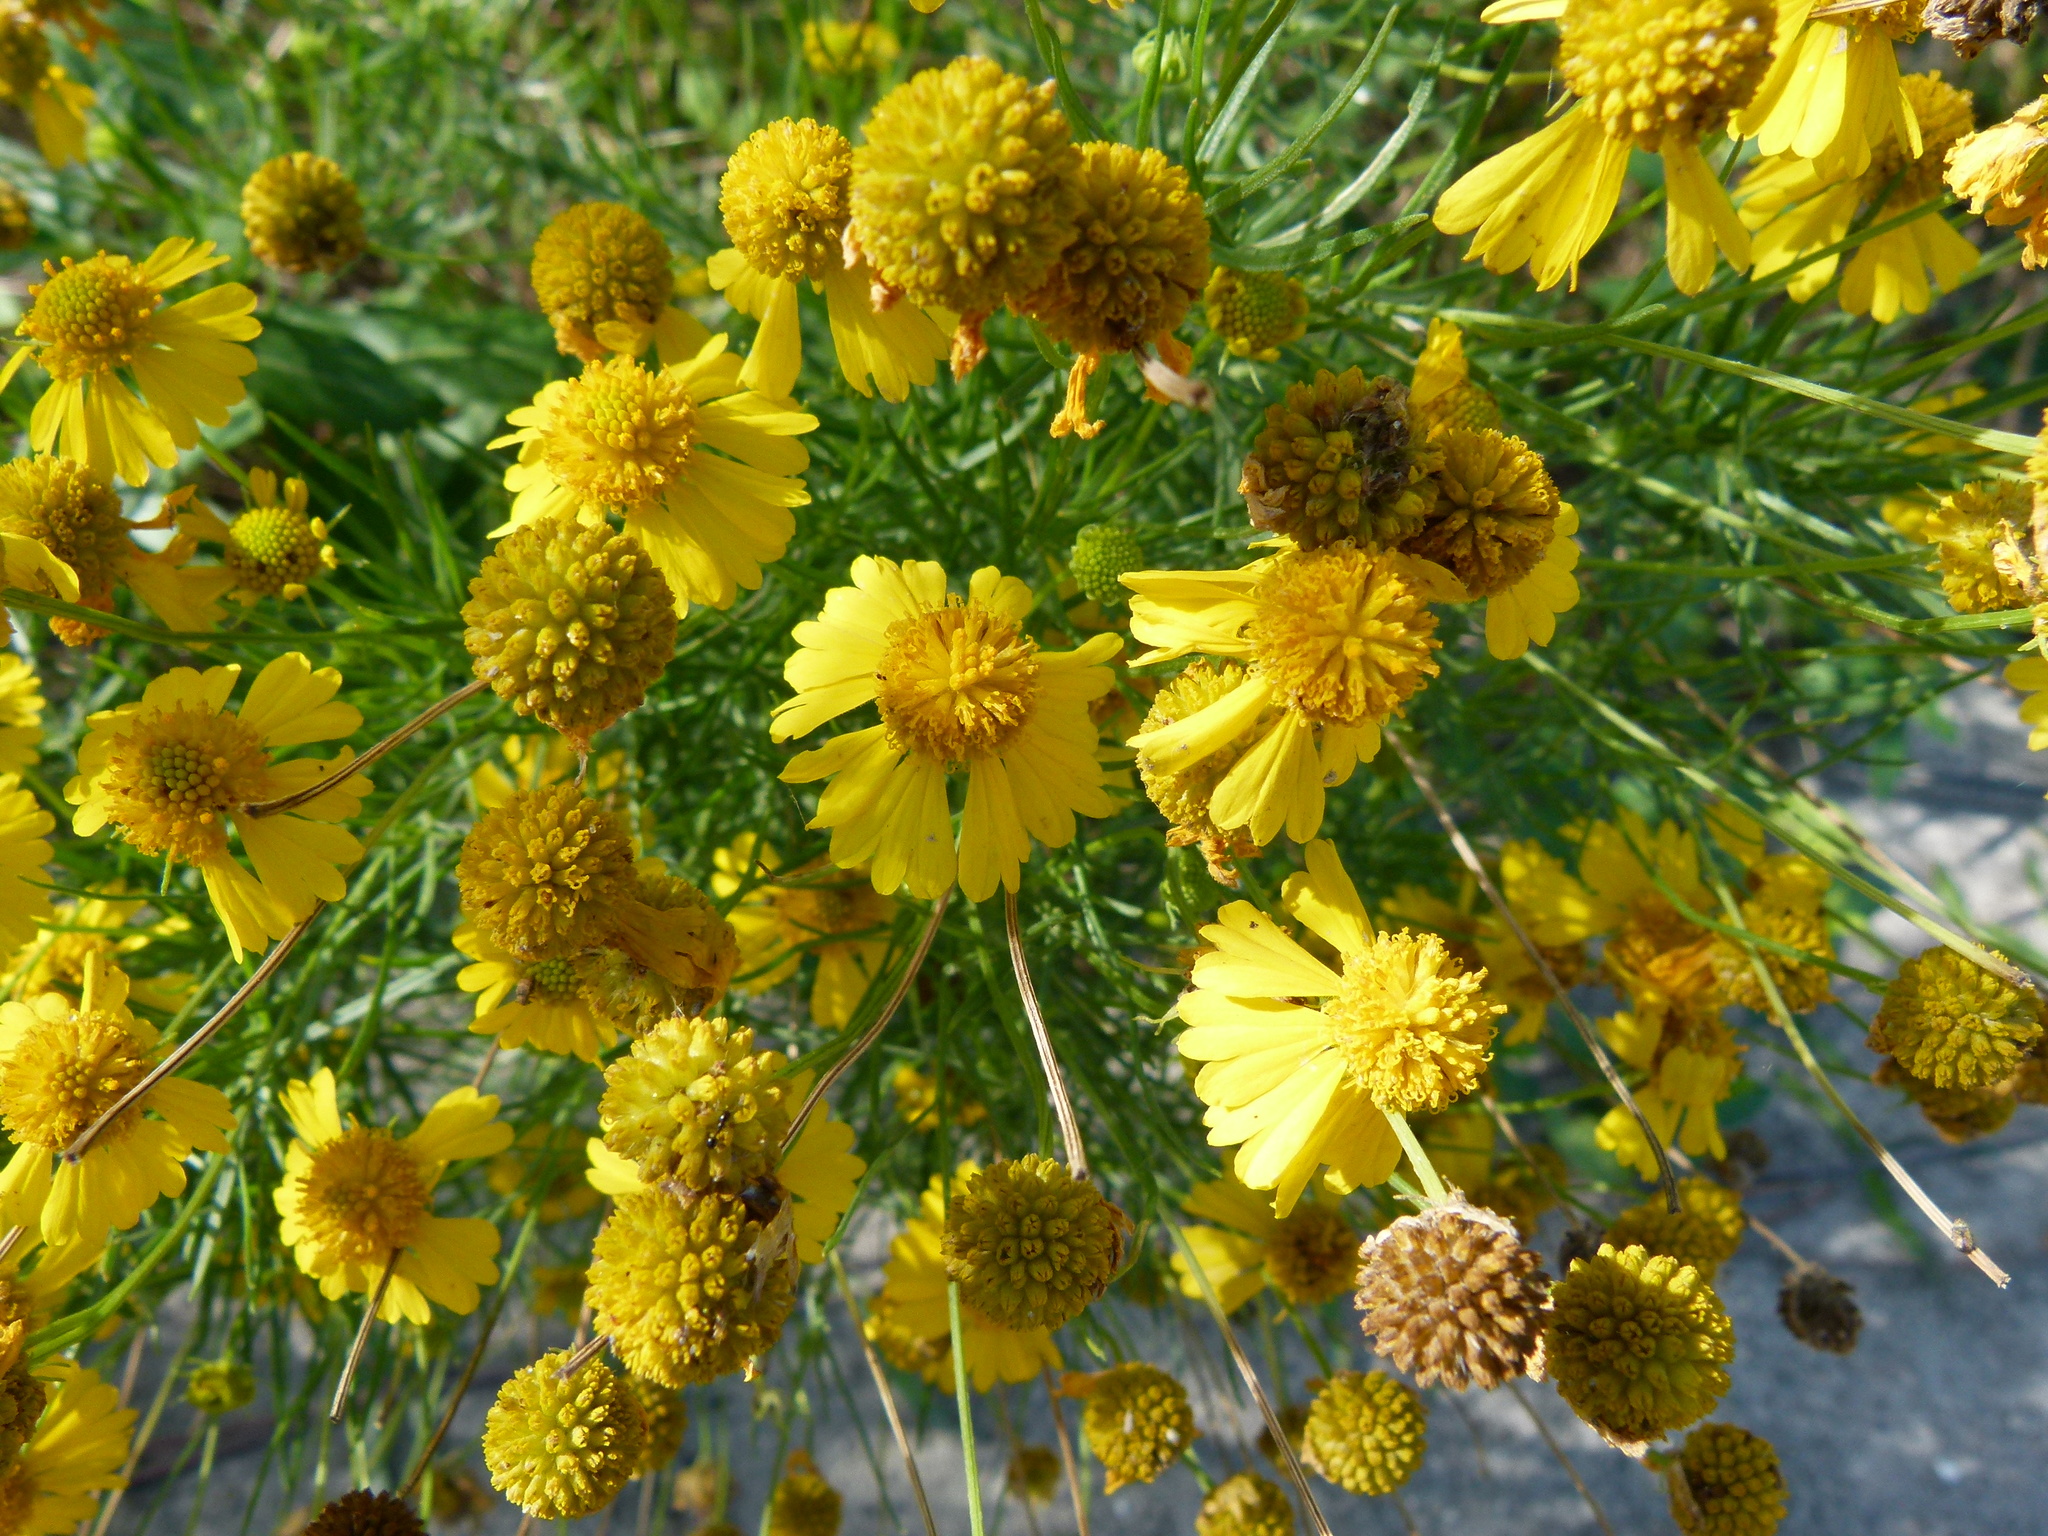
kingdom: Plantae
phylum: Tracheophyta
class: Magnoliopsida
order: Asterales
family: Asteraceae
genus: Helenium
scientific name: Helenium amarum
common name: Bitter sneezeweed
